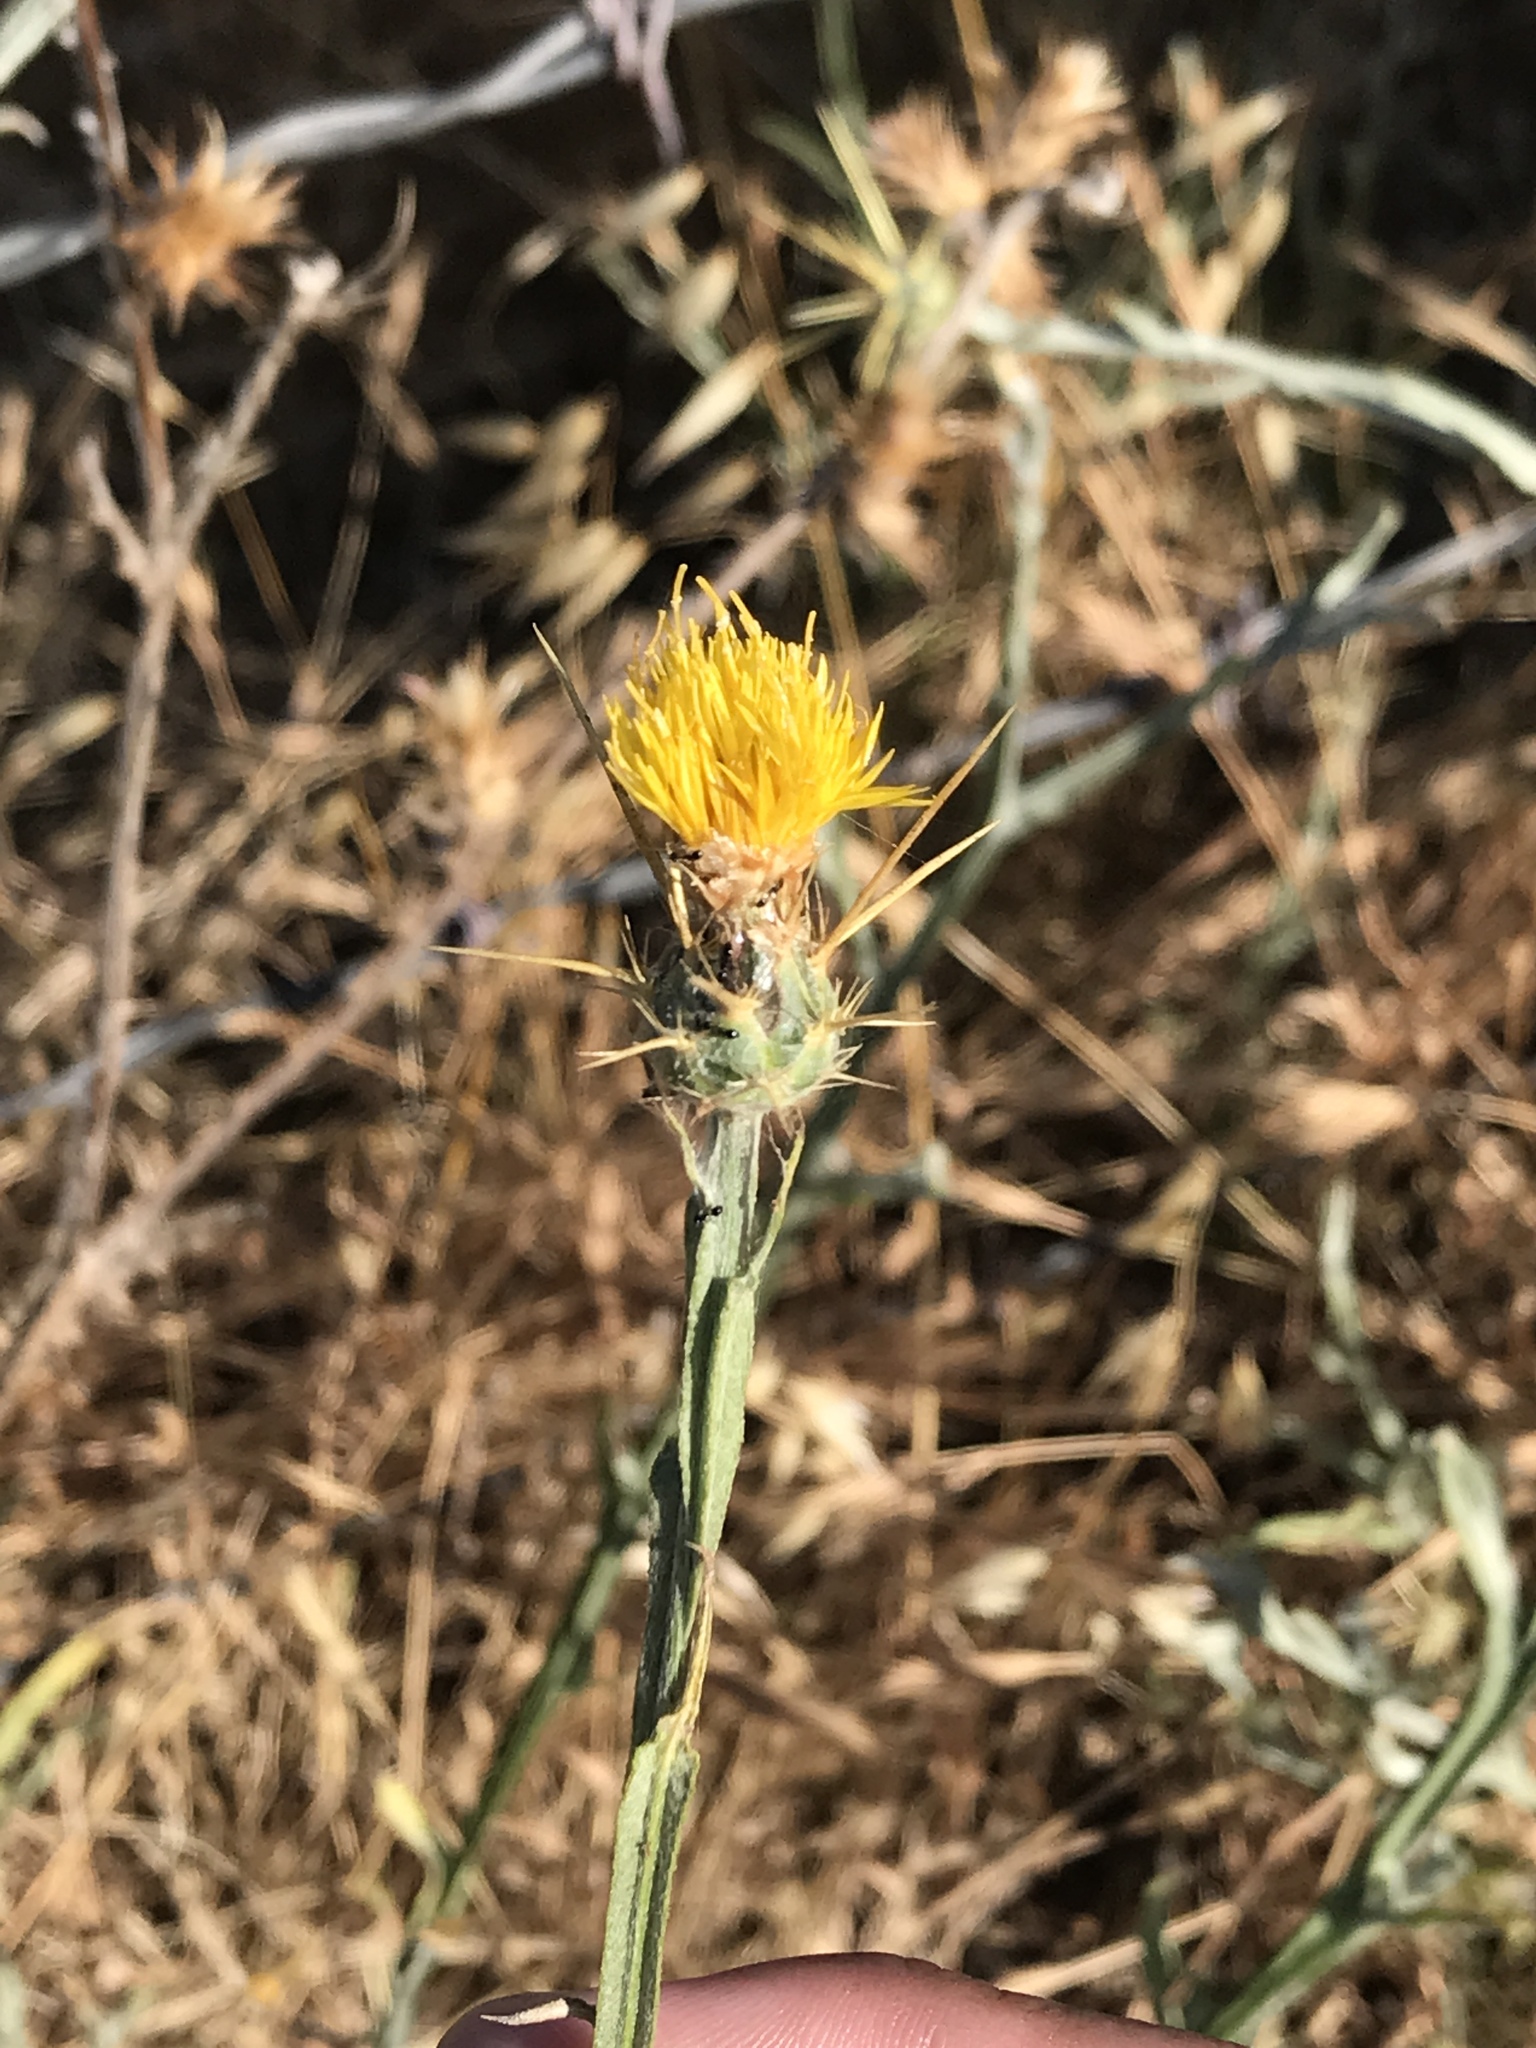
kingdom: Plantae
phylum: Tracheophyta
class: Magnoliopsida
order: Asterales
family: Asteraceae
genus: Centaurea
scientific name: Centaurea solstitialis
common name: Yellow star-thistle
